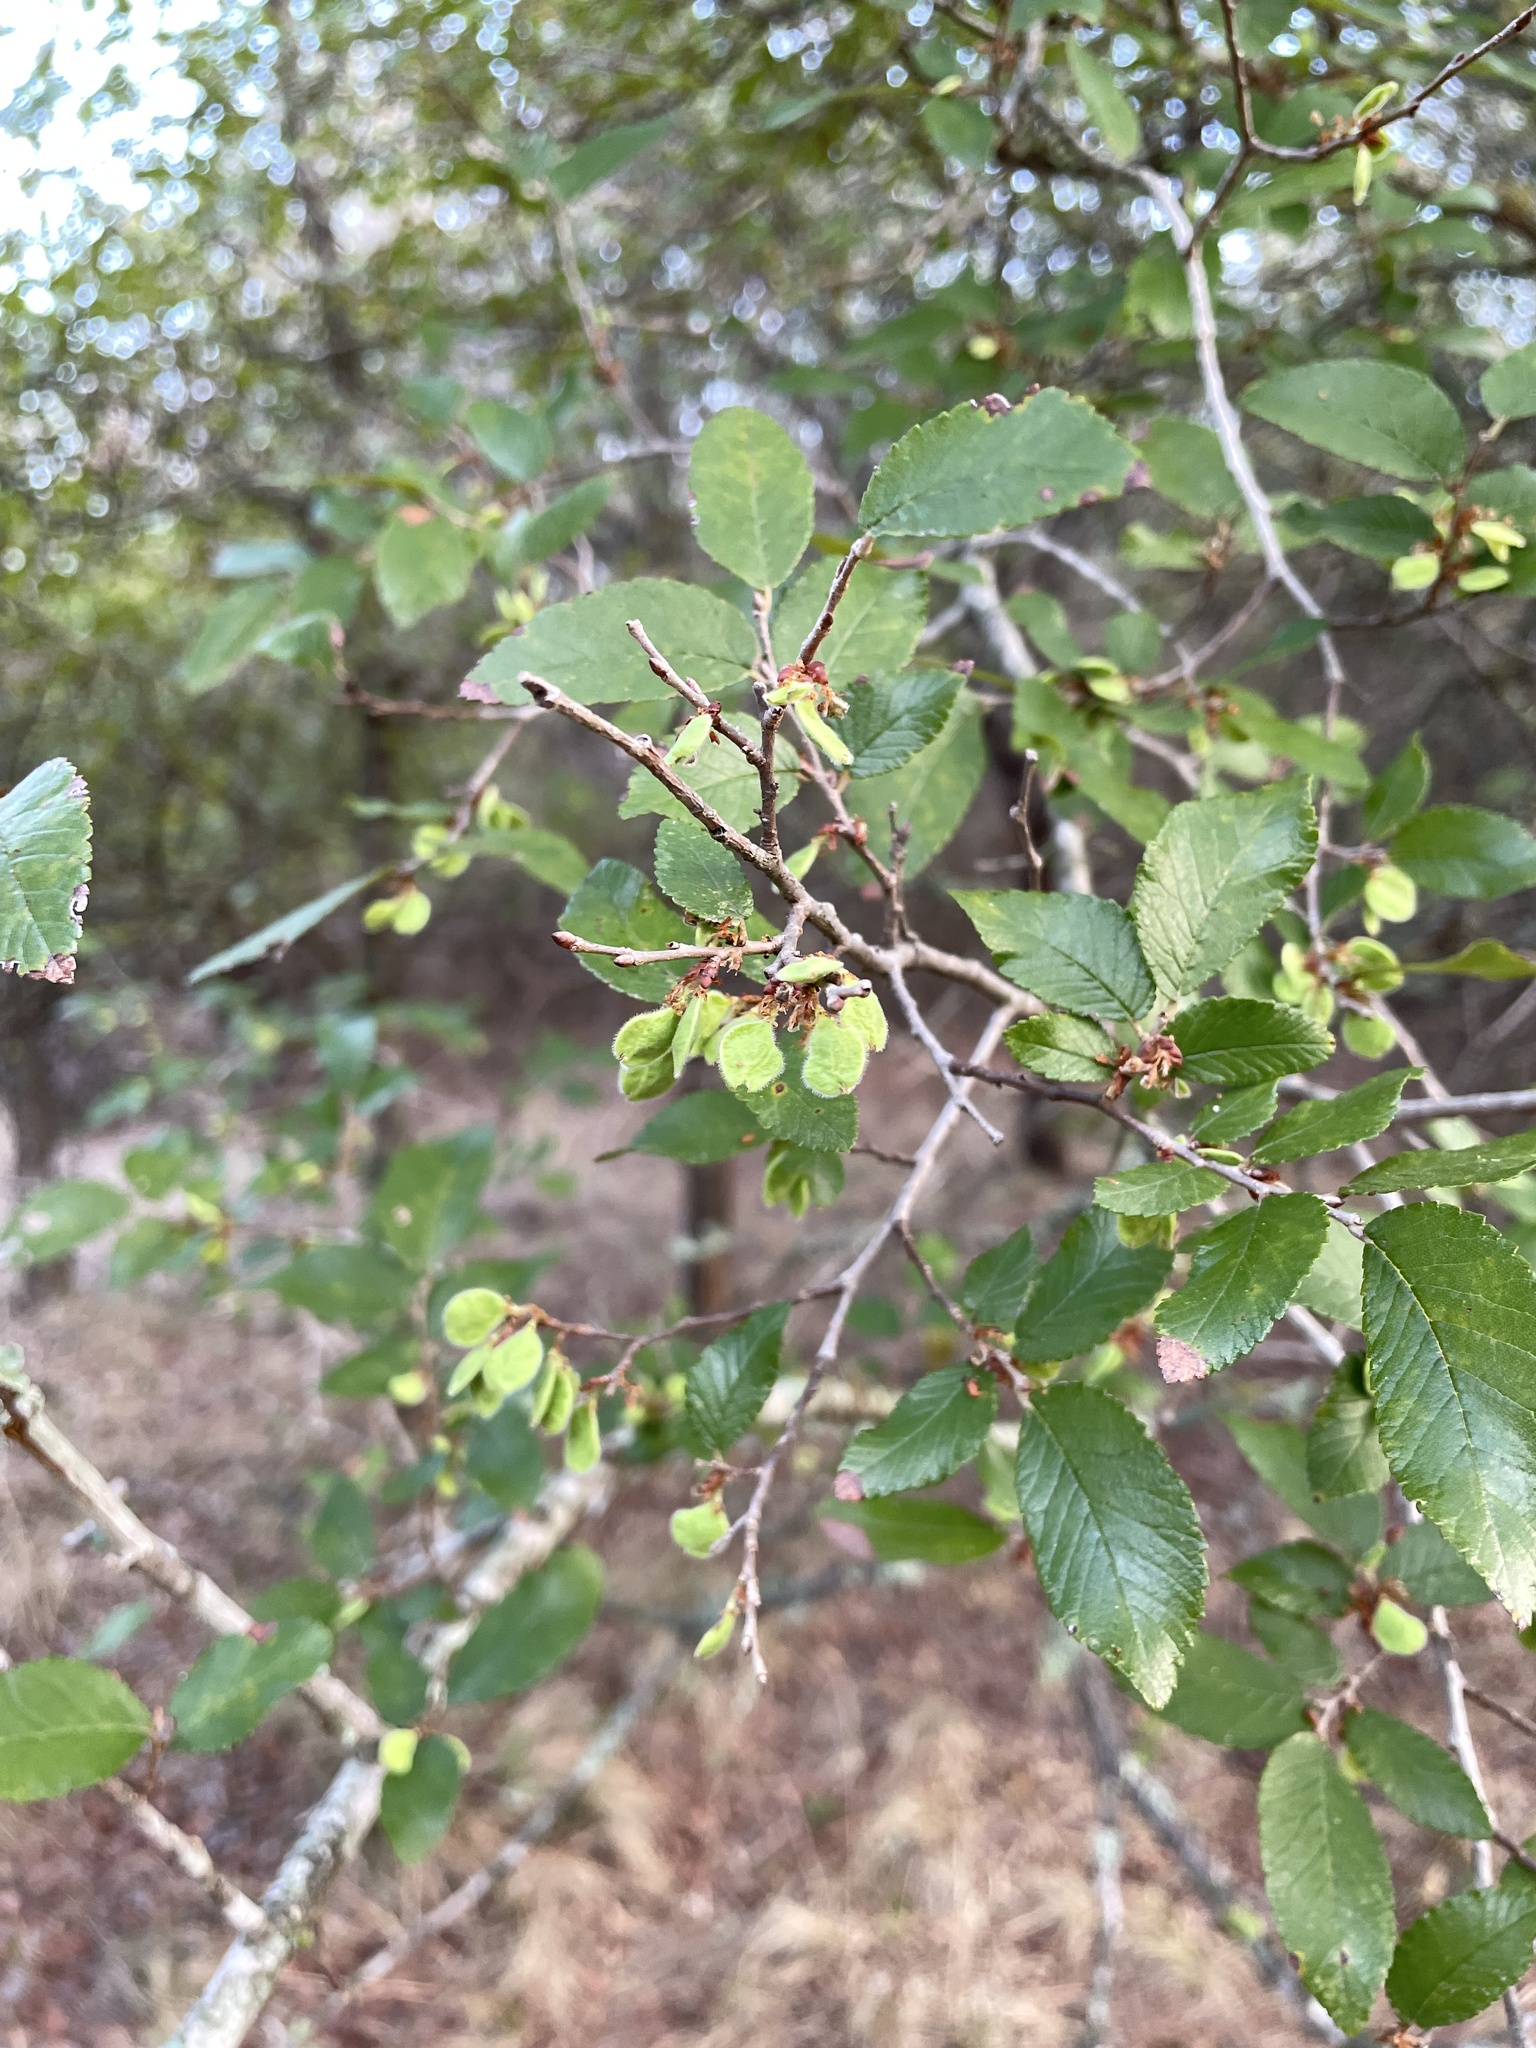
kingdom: Plantae
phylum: Tracheophyta
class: Magnoliopsida
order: Rosales
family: Ulmaceae
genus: Ulmus
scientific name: Ulmus crassifolia
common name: Basket elm
